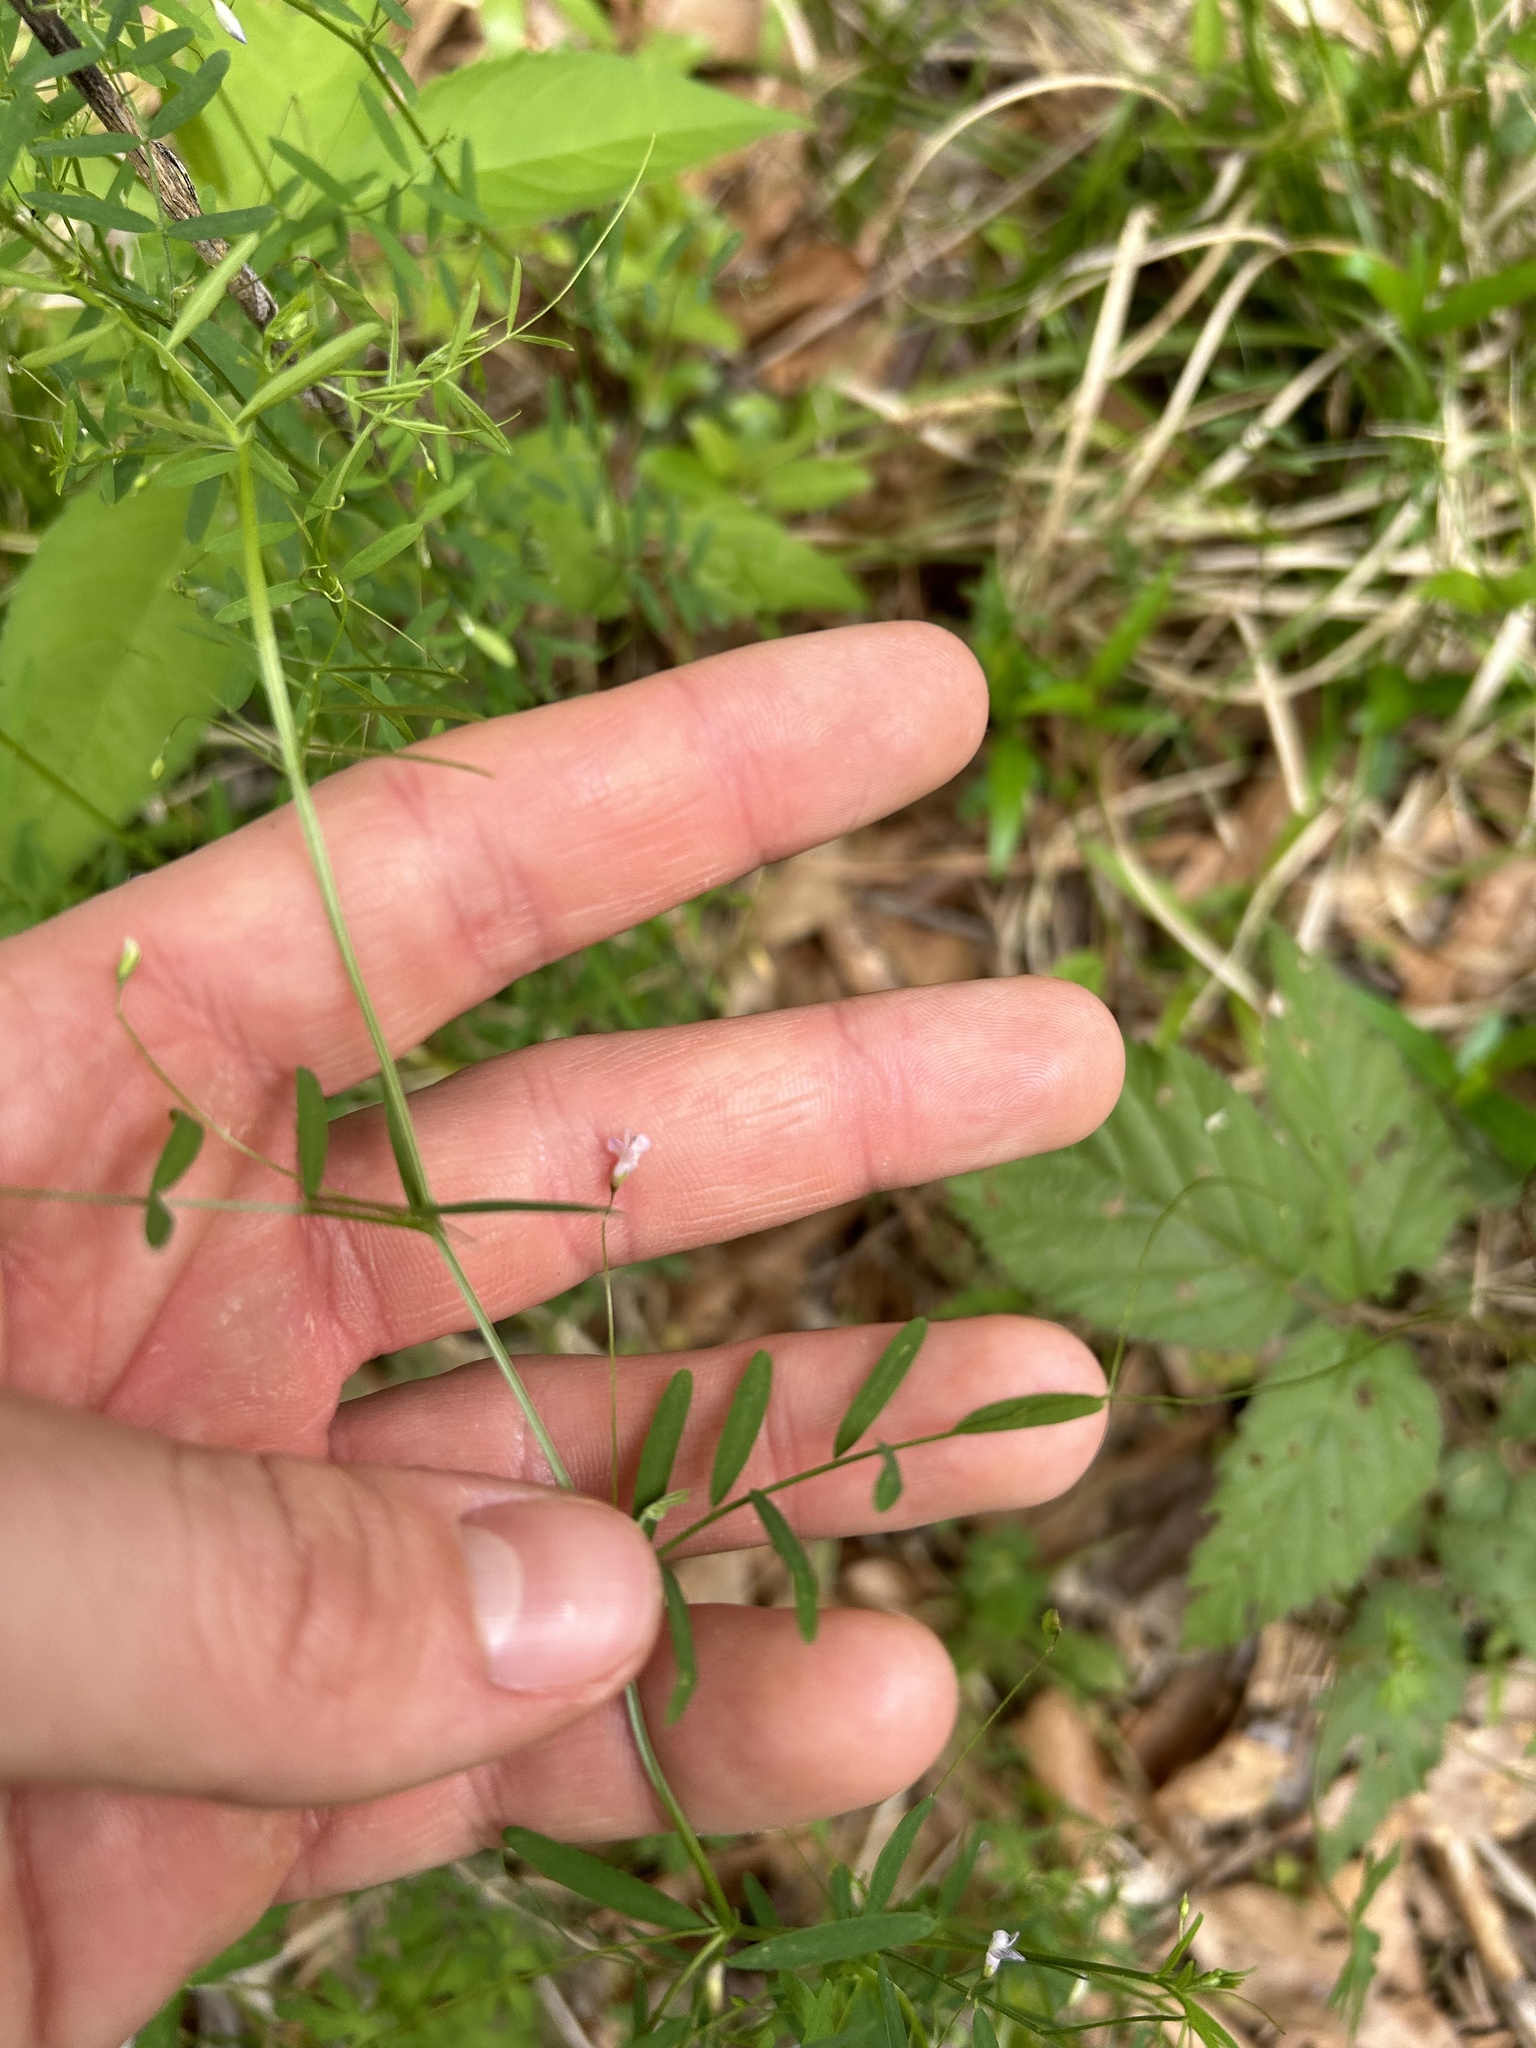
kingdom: Plantae
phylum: Tracheophyta
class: Magnoliopsida
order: Fabales
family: Fabaceae
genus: Vicia
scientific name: Vicia tetrasperma
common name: Smooth tare
